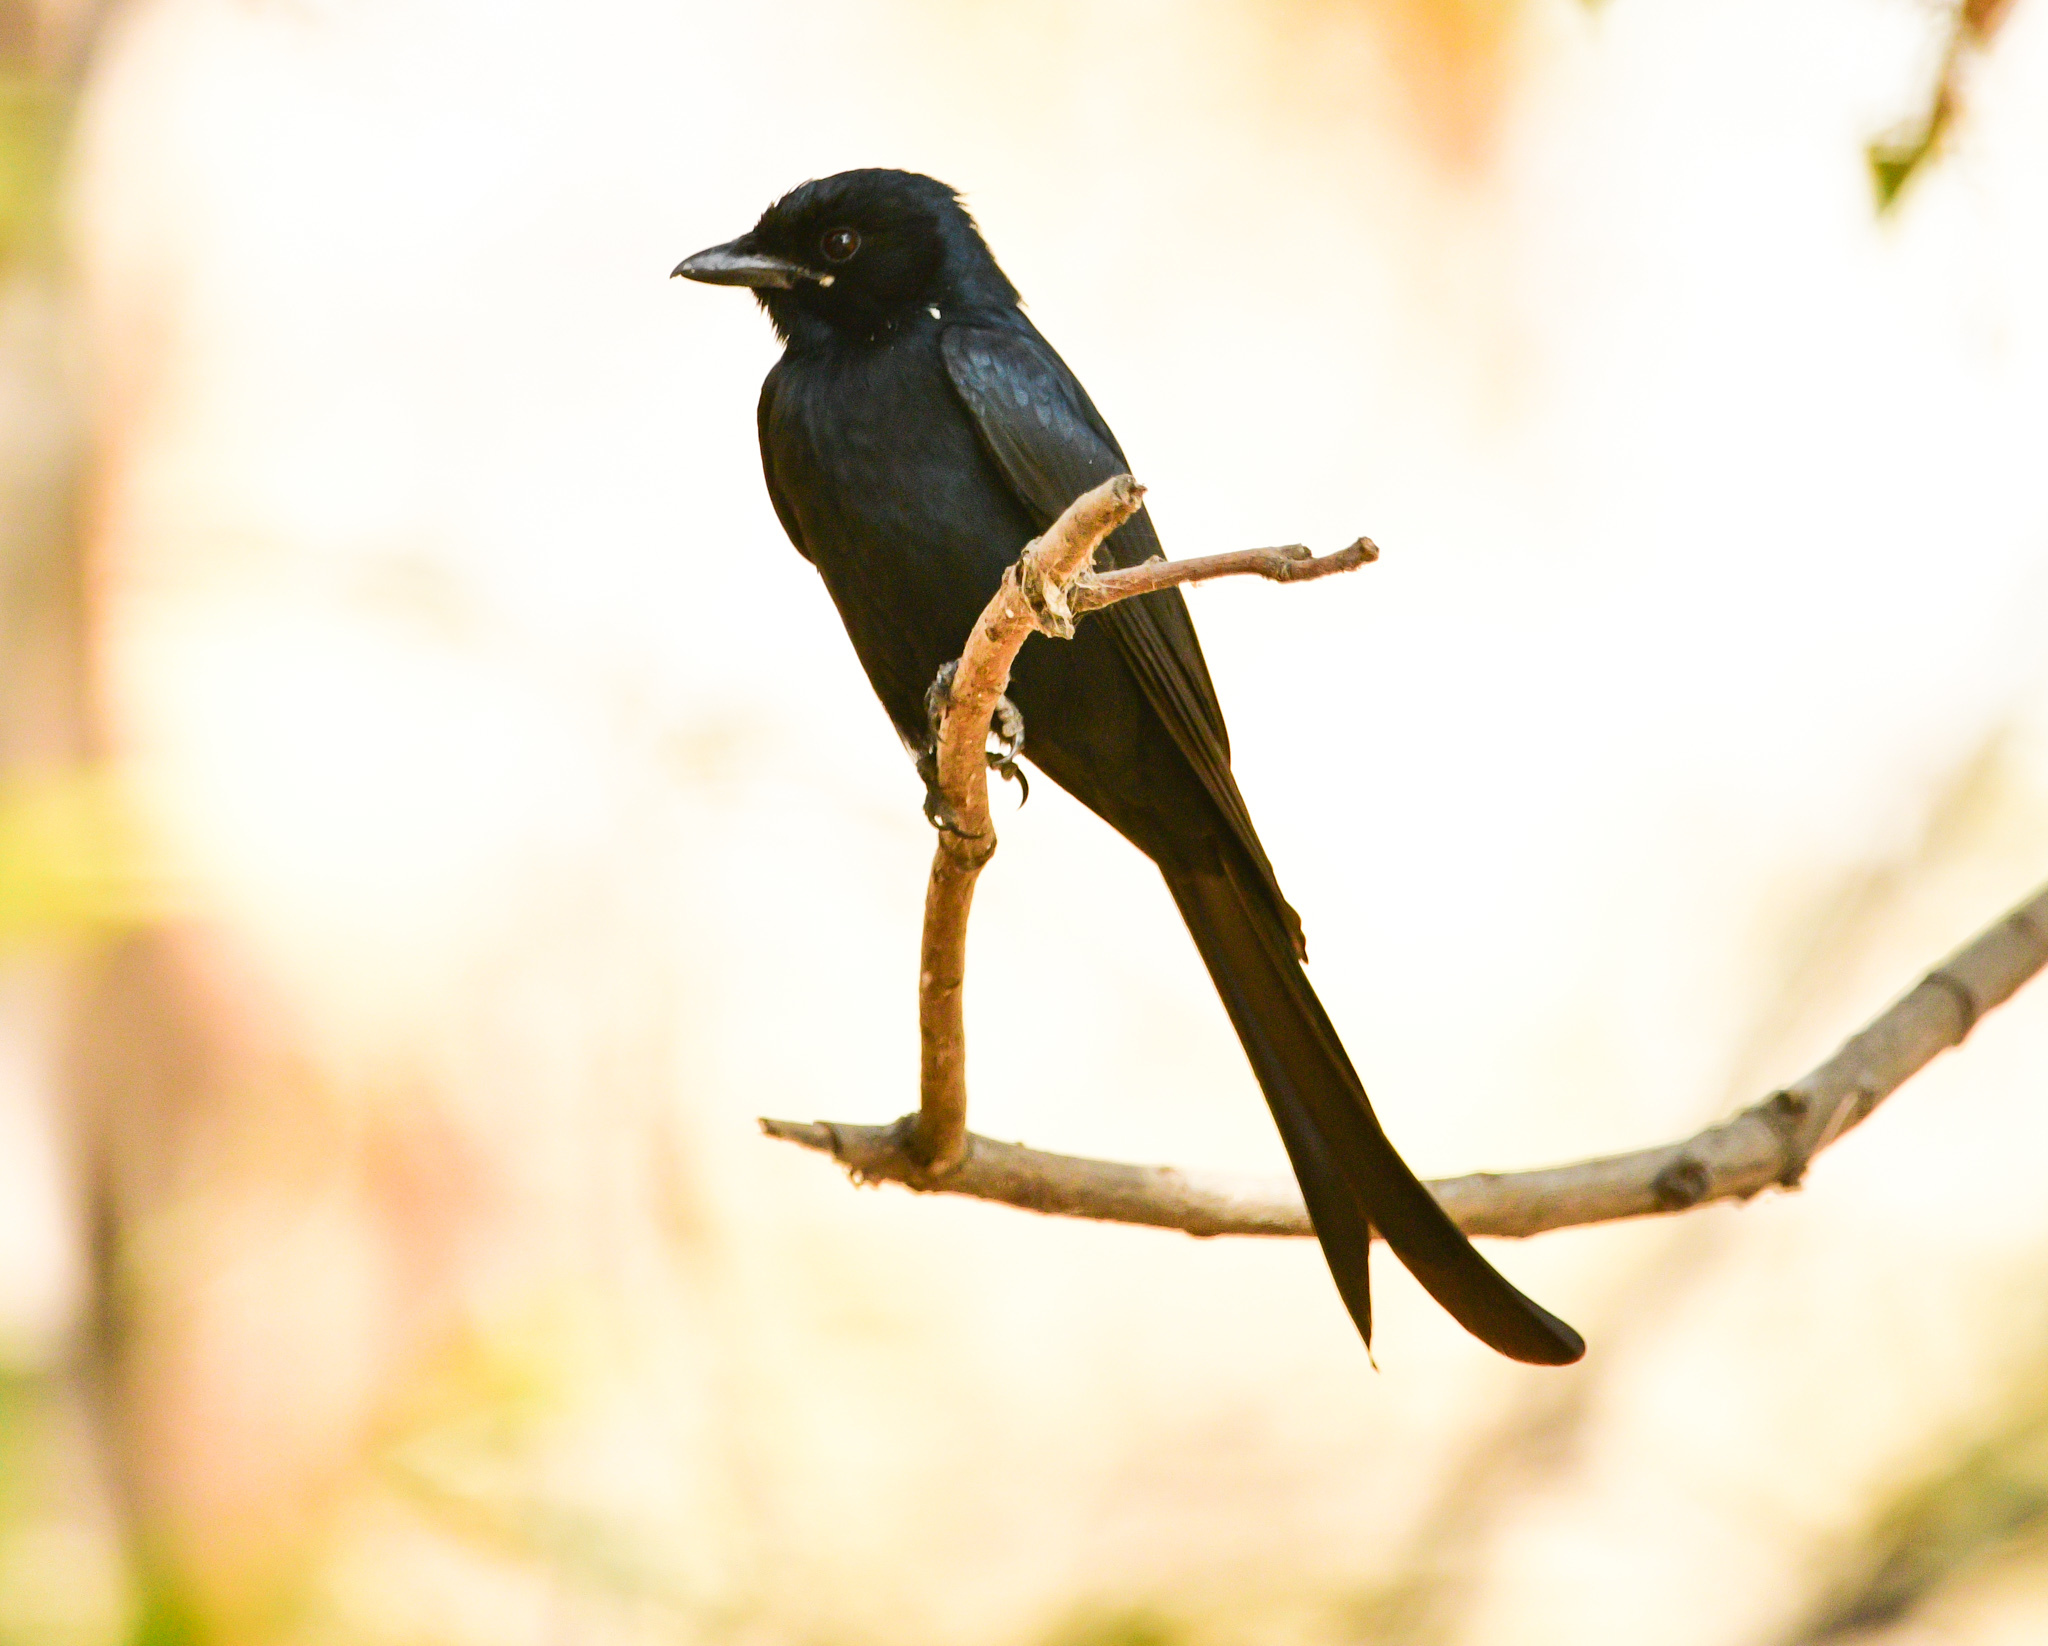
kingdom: Animalia
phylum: Chordata
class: Aves
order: Passeriformes
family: Dicruridae
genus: Dicrurus
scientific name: Dicrurus macrocercus
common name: Black drongo
